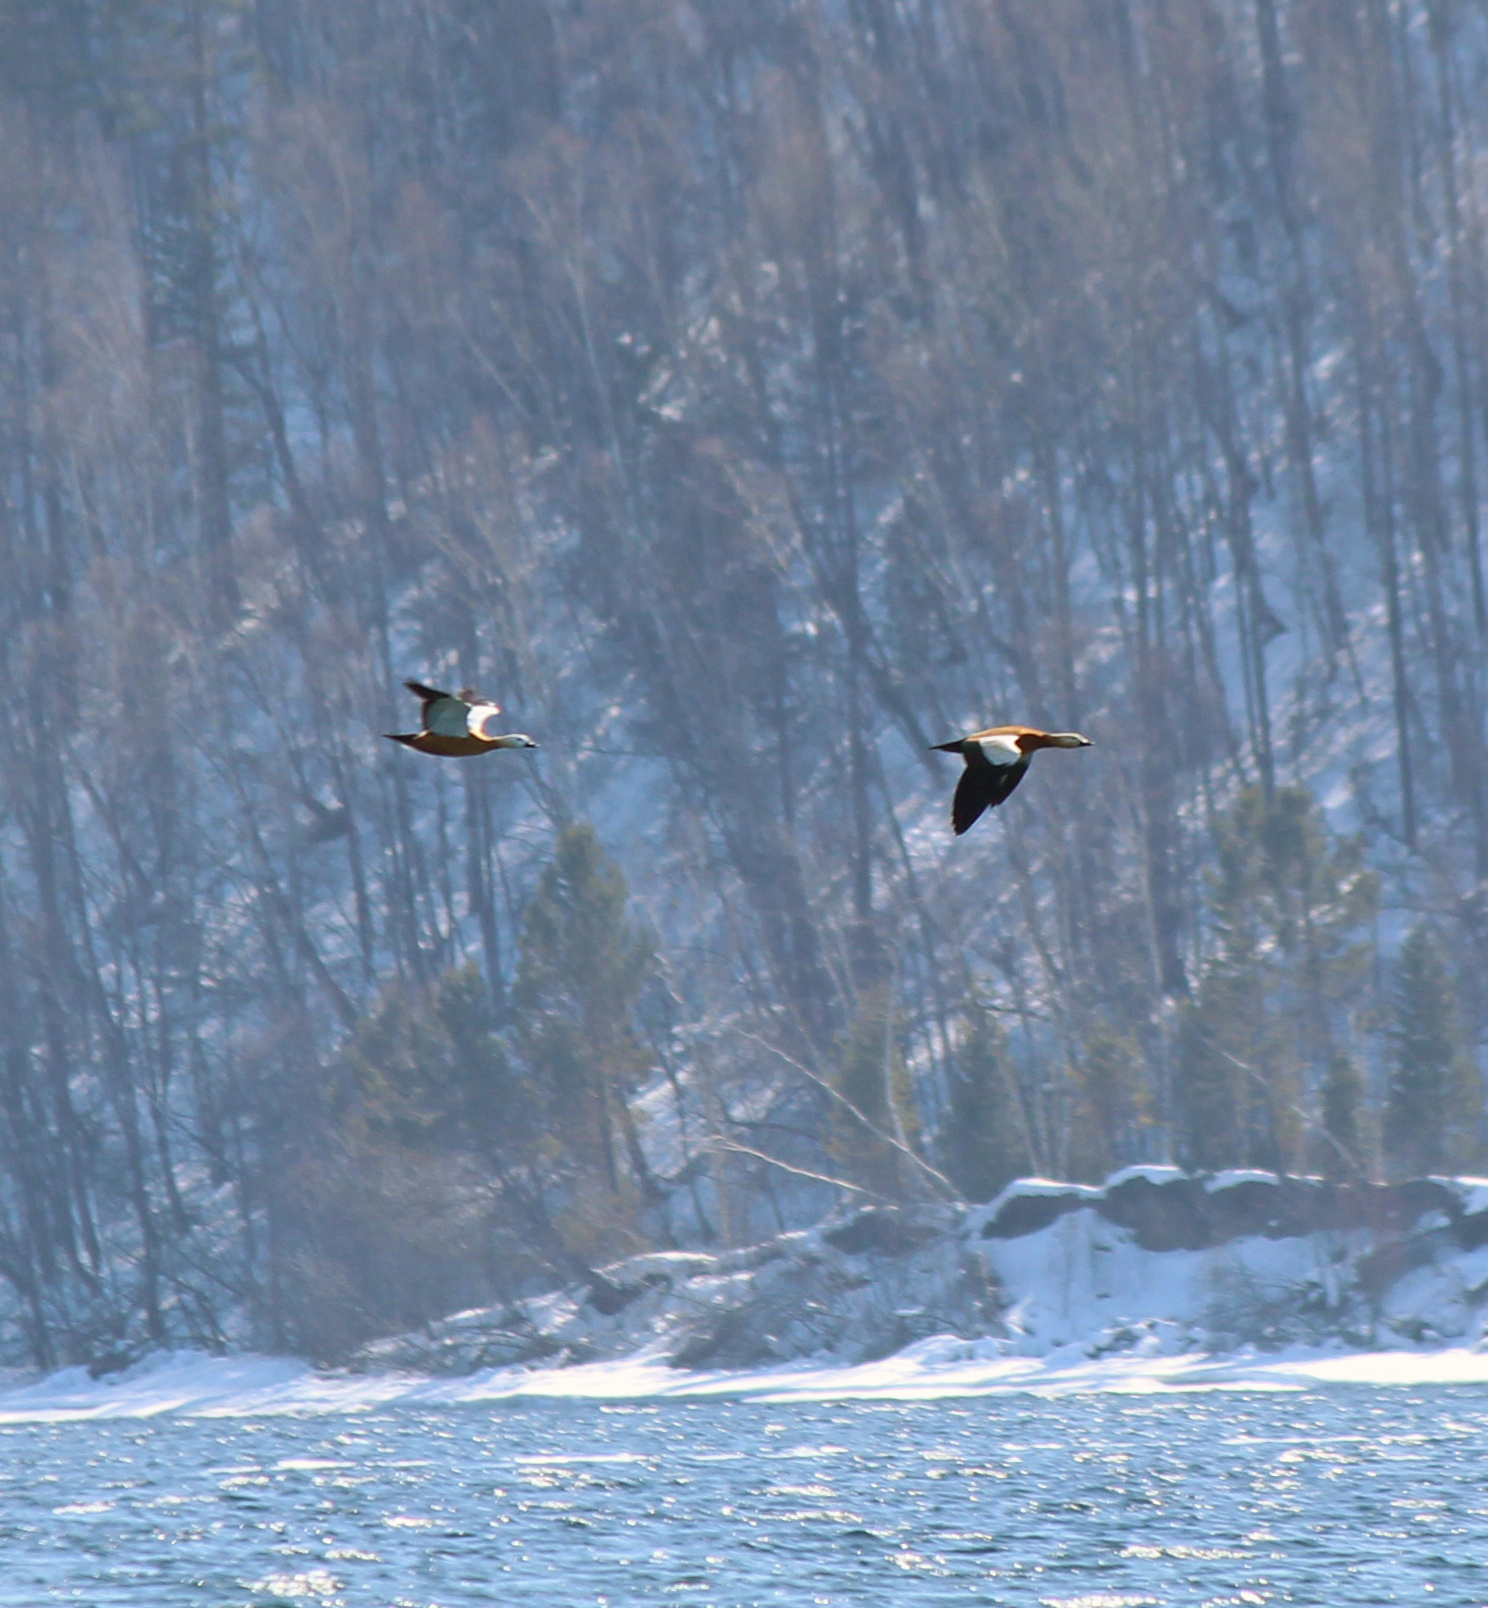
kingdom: Animalia
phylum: Chordata
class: Aves
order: Anseriformes
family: Anatidae
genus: Tadorna
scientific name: Tadorna ferruginea
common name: Ruddy shelduck
